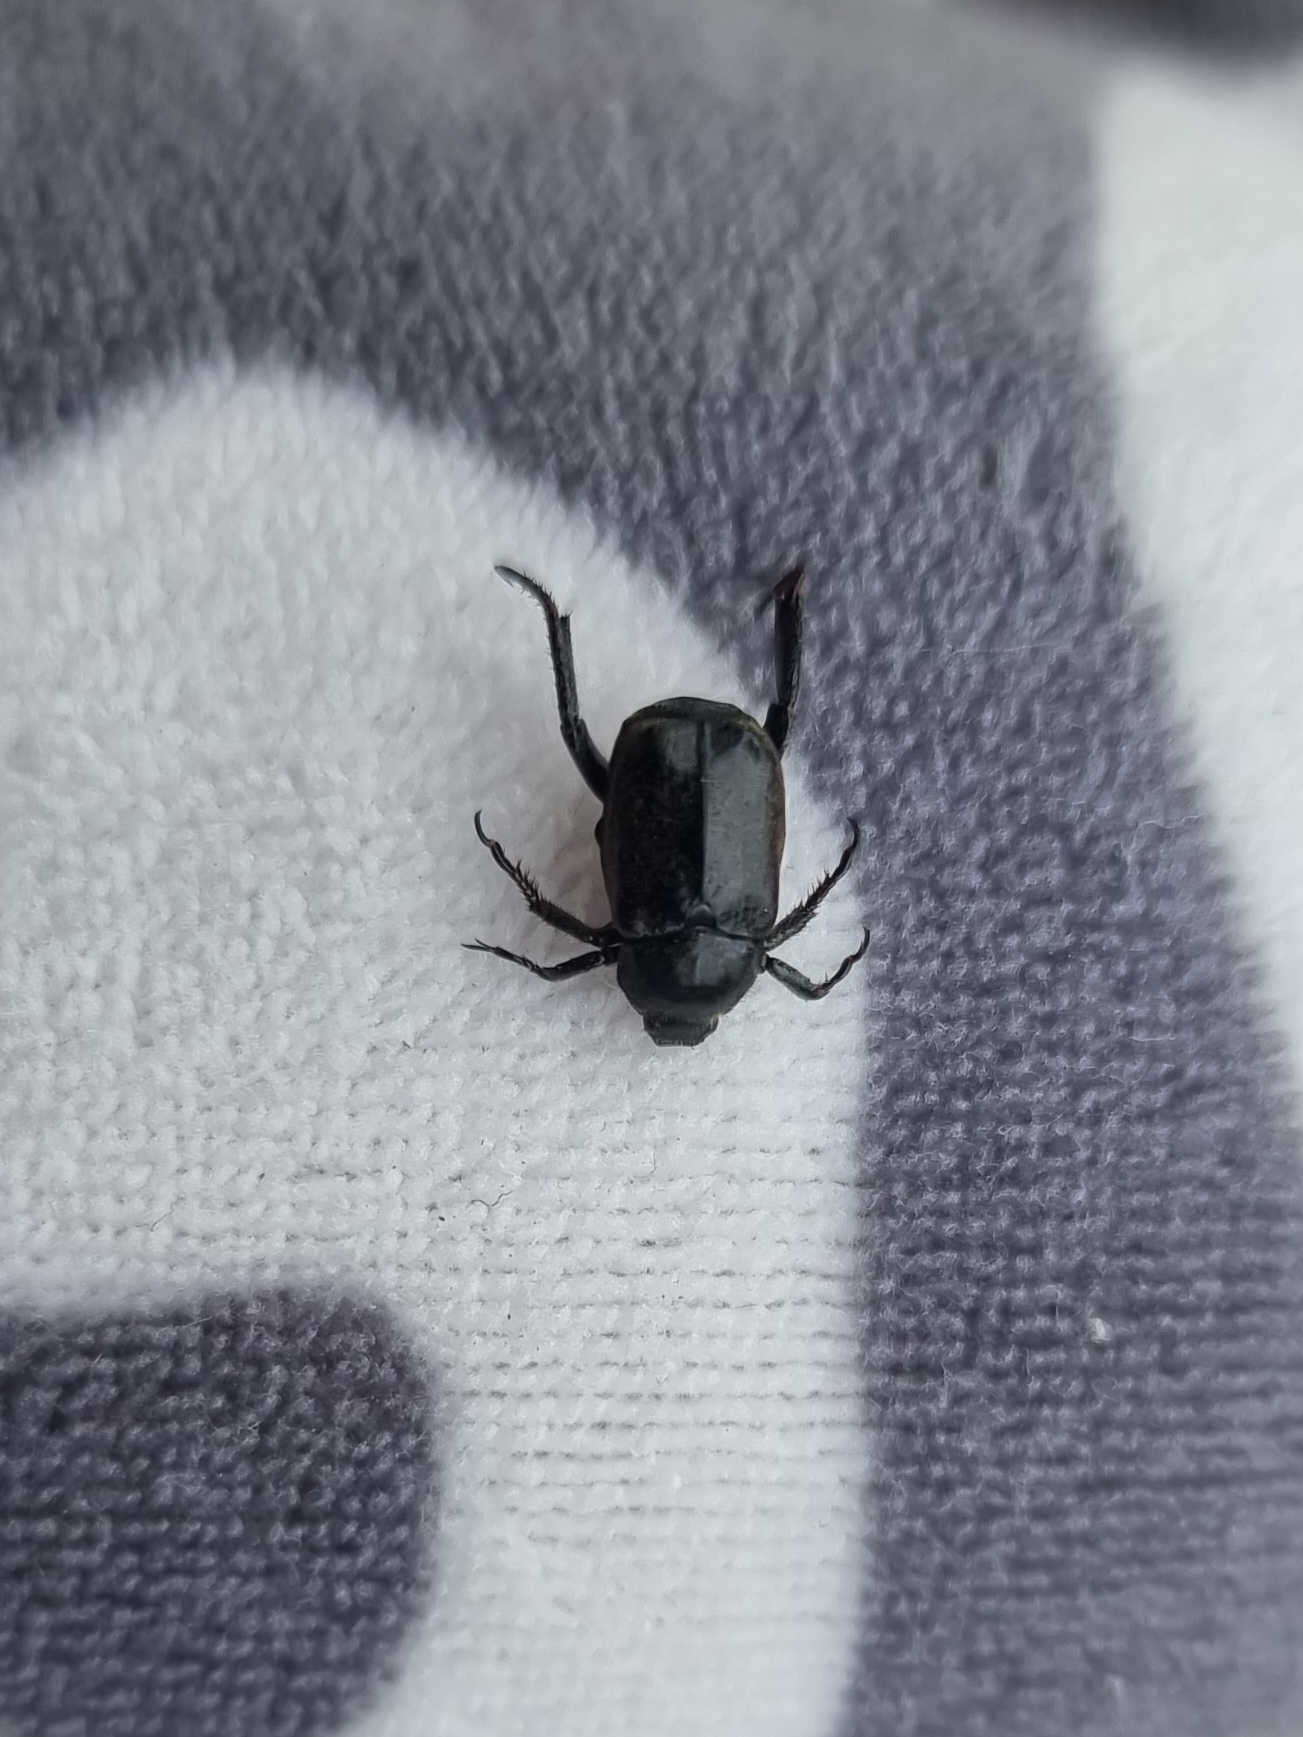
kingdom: Animalia
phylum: Arthropoda
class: Insecta
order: Coleoptera
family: Scarabaeidae
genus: Hoplia
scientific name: Hoplia philanthus
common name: Welsh chafer
